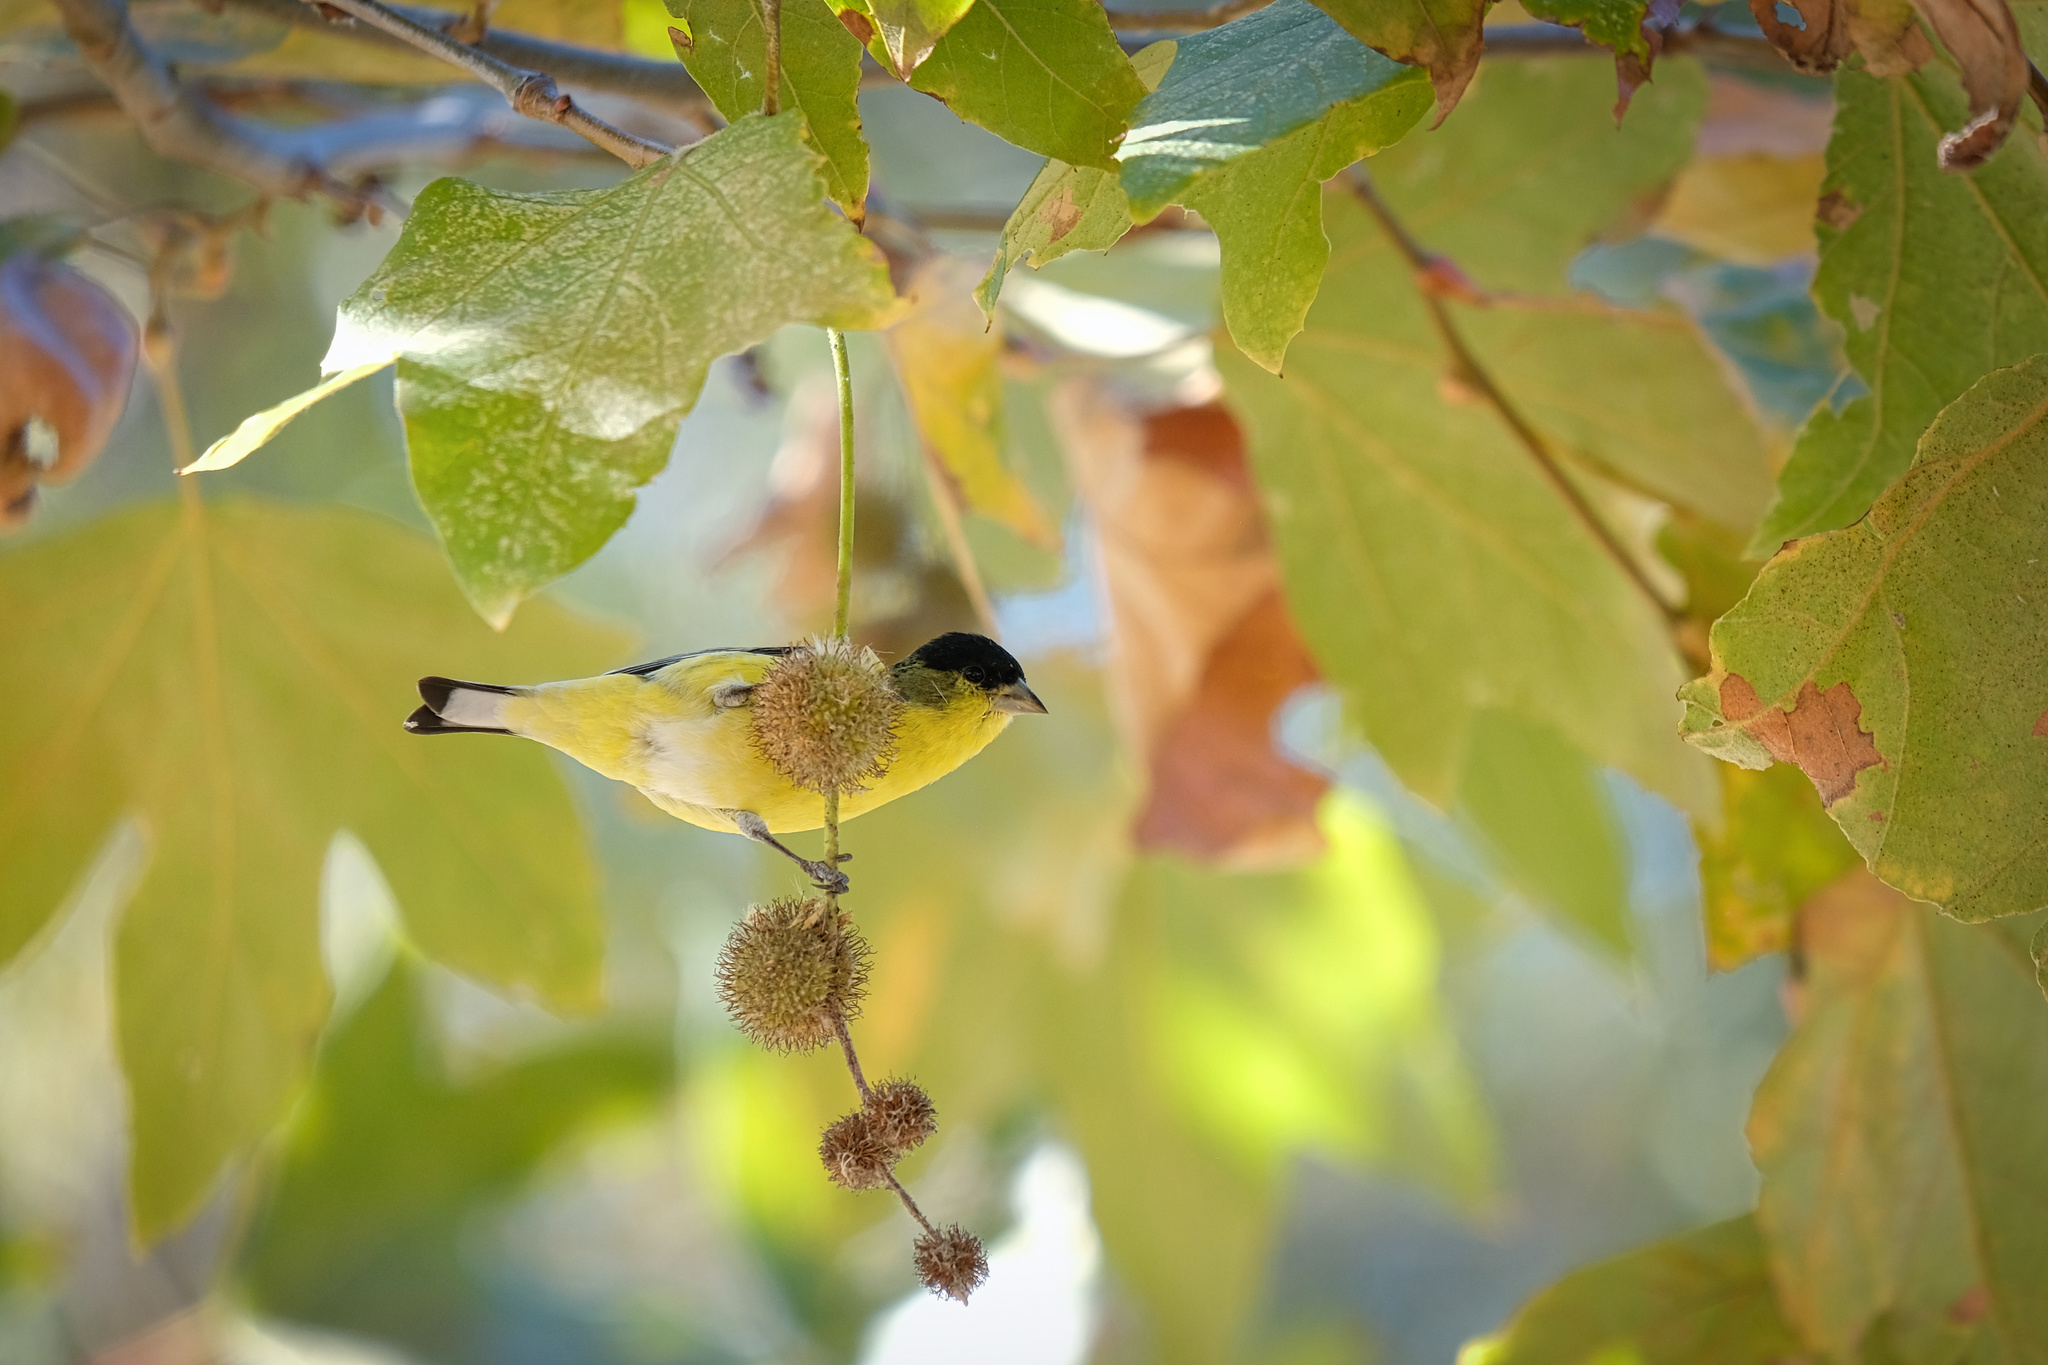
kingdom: Animalia
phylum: Chordata
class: Aves
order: Passeriformes
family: Fringillidae
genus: Spinus
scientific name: Spinus psaltria
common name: Lesser goldfinch
